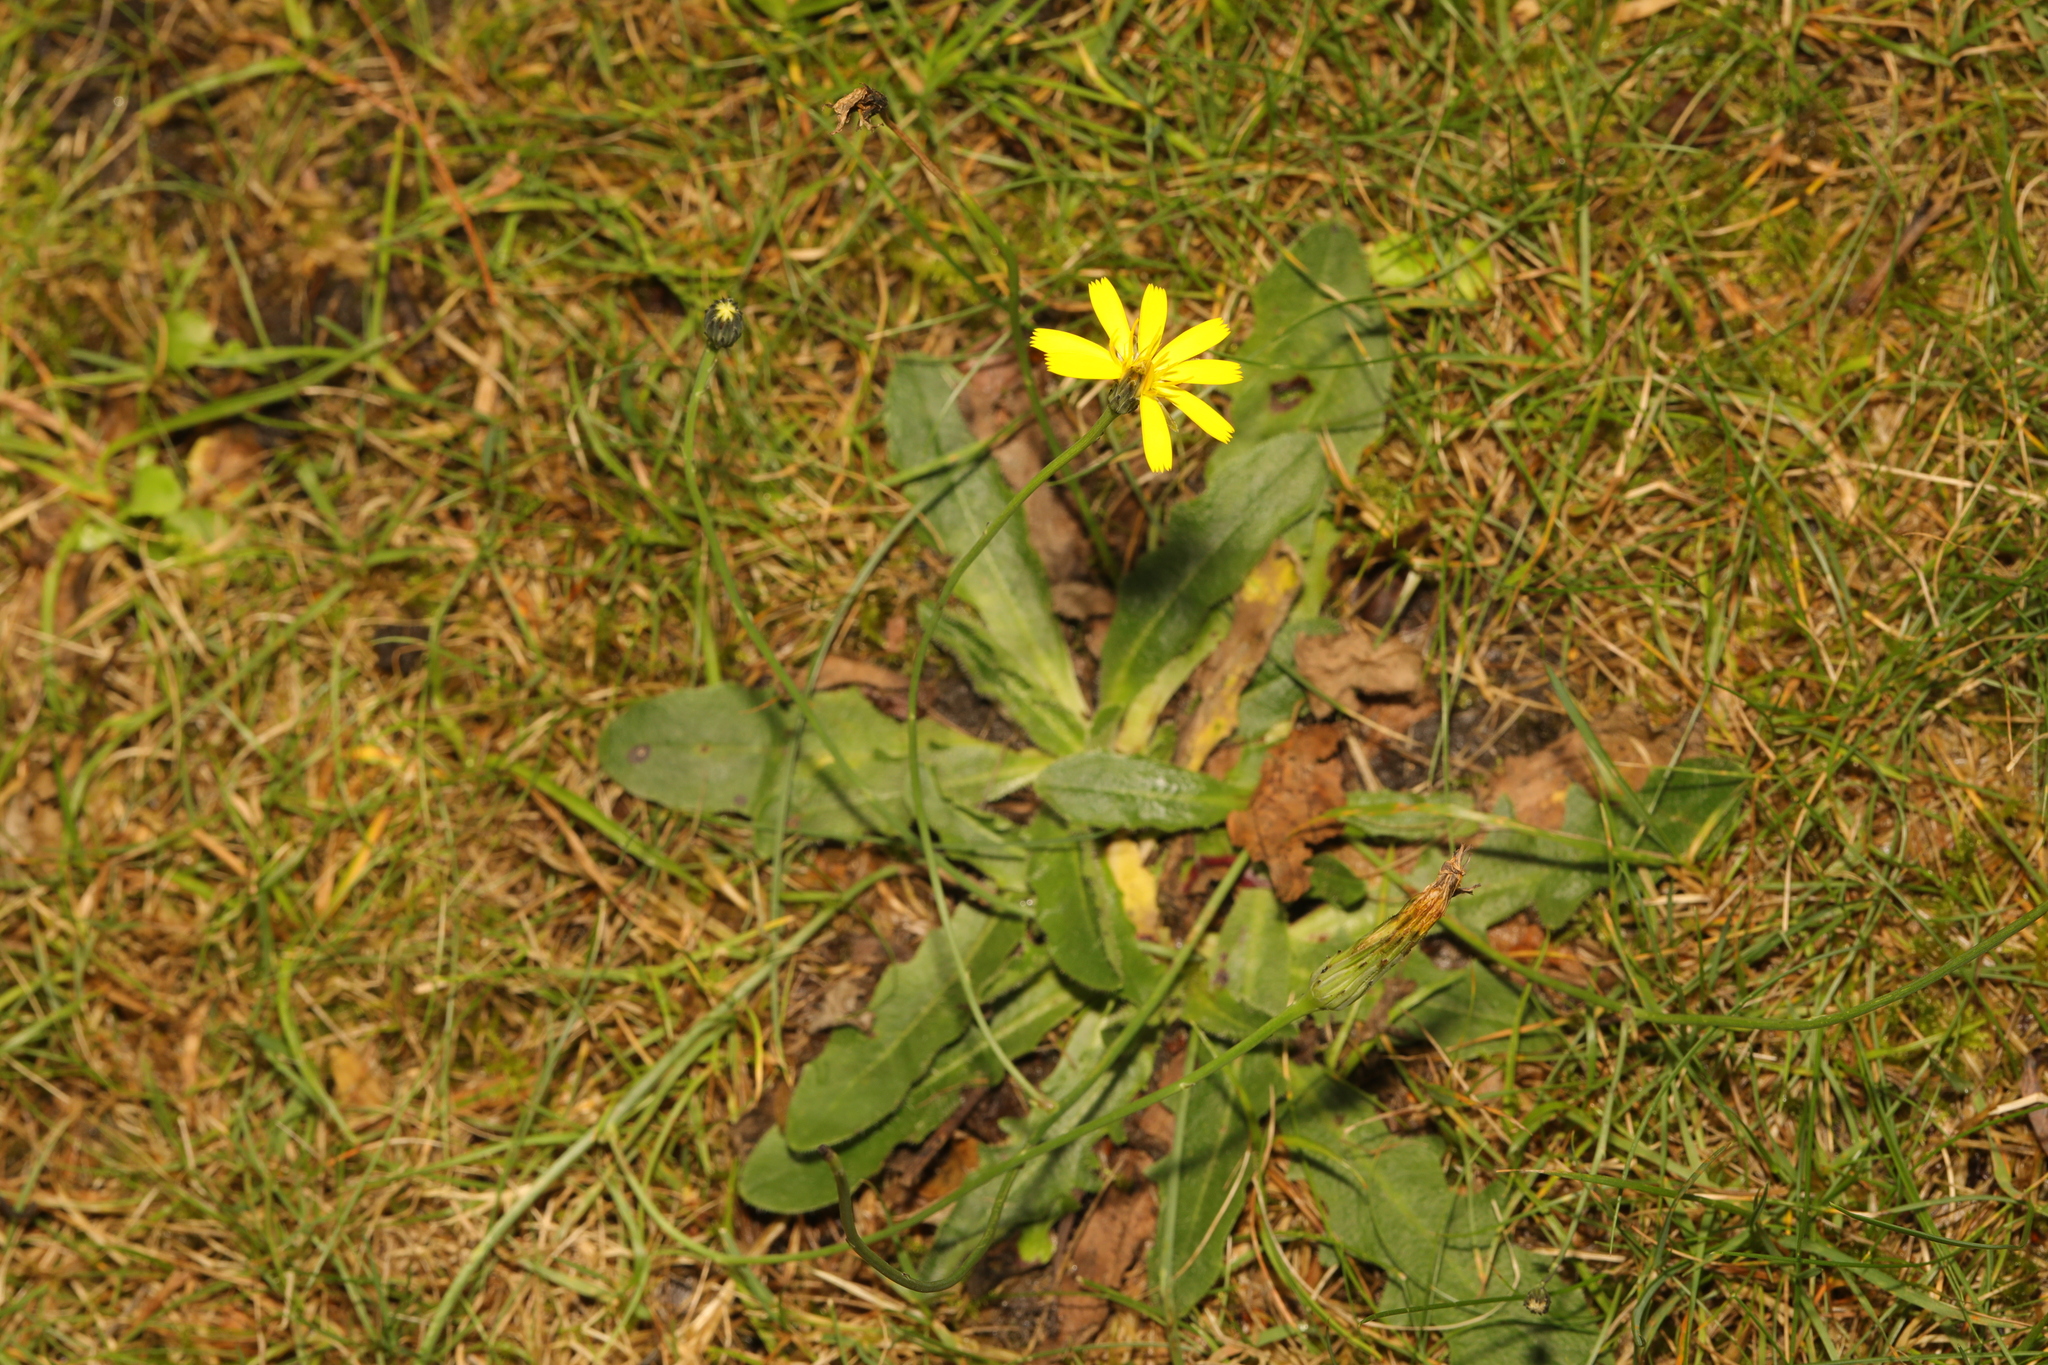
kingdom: Plantae
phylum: Tracheophyta
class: Magnoliopsida
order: Asterales
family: Asteraceae
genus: Hypochaeris
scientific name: Hypochaeris radicata
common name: Flatweed
